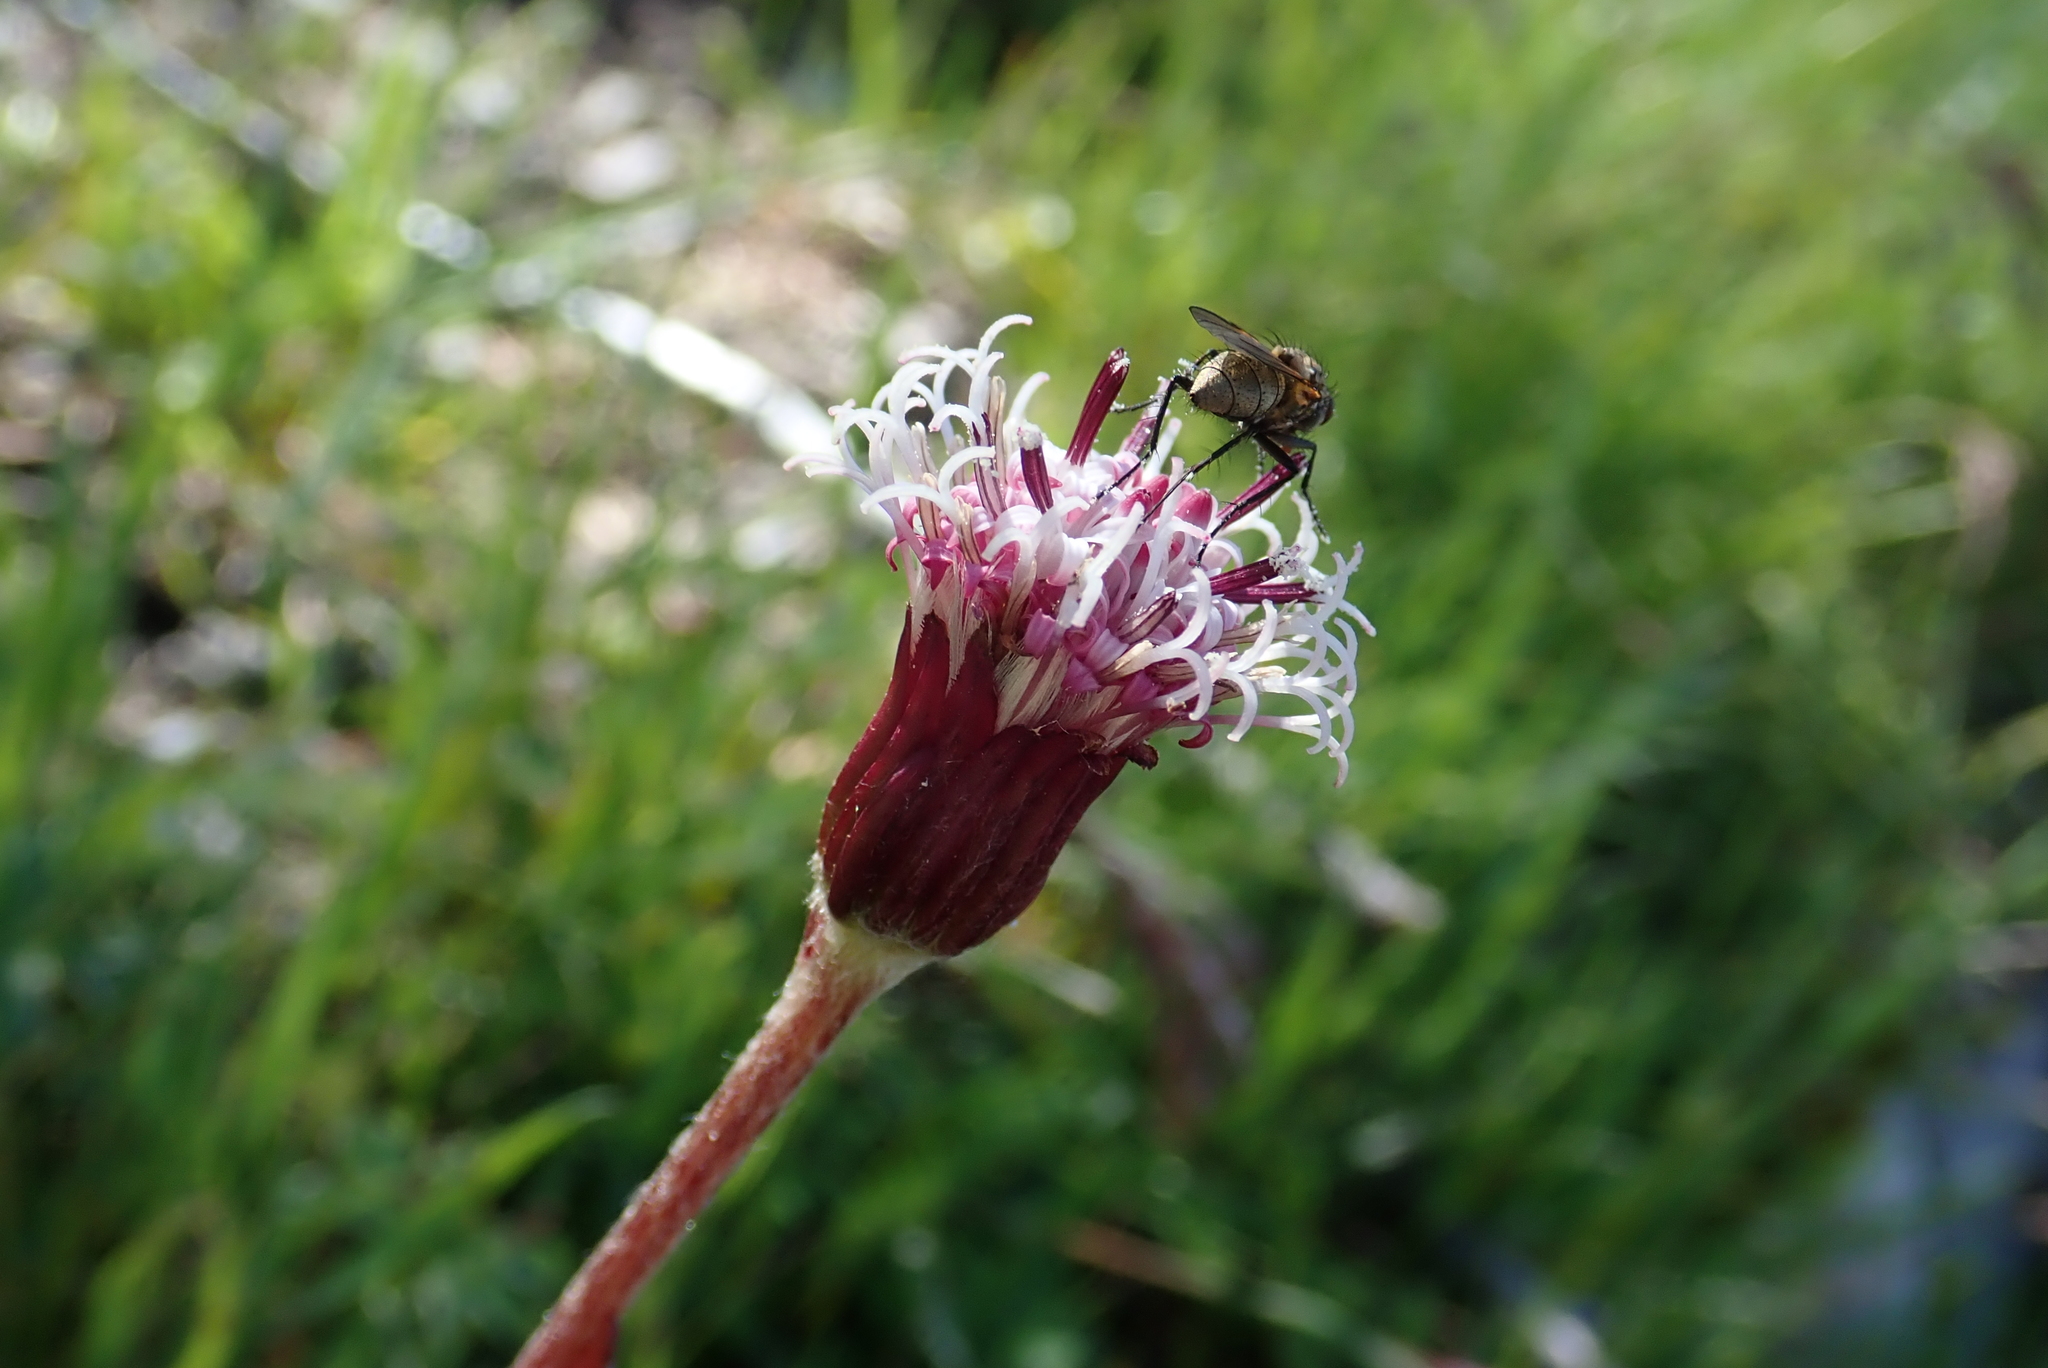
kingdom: Plantae
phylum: Tracheophyta
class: Magnoliopsida
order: Asterales
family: Asteraceae
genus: Homogyne
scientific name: Homogyne alpina
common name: Purple colt's-foot
